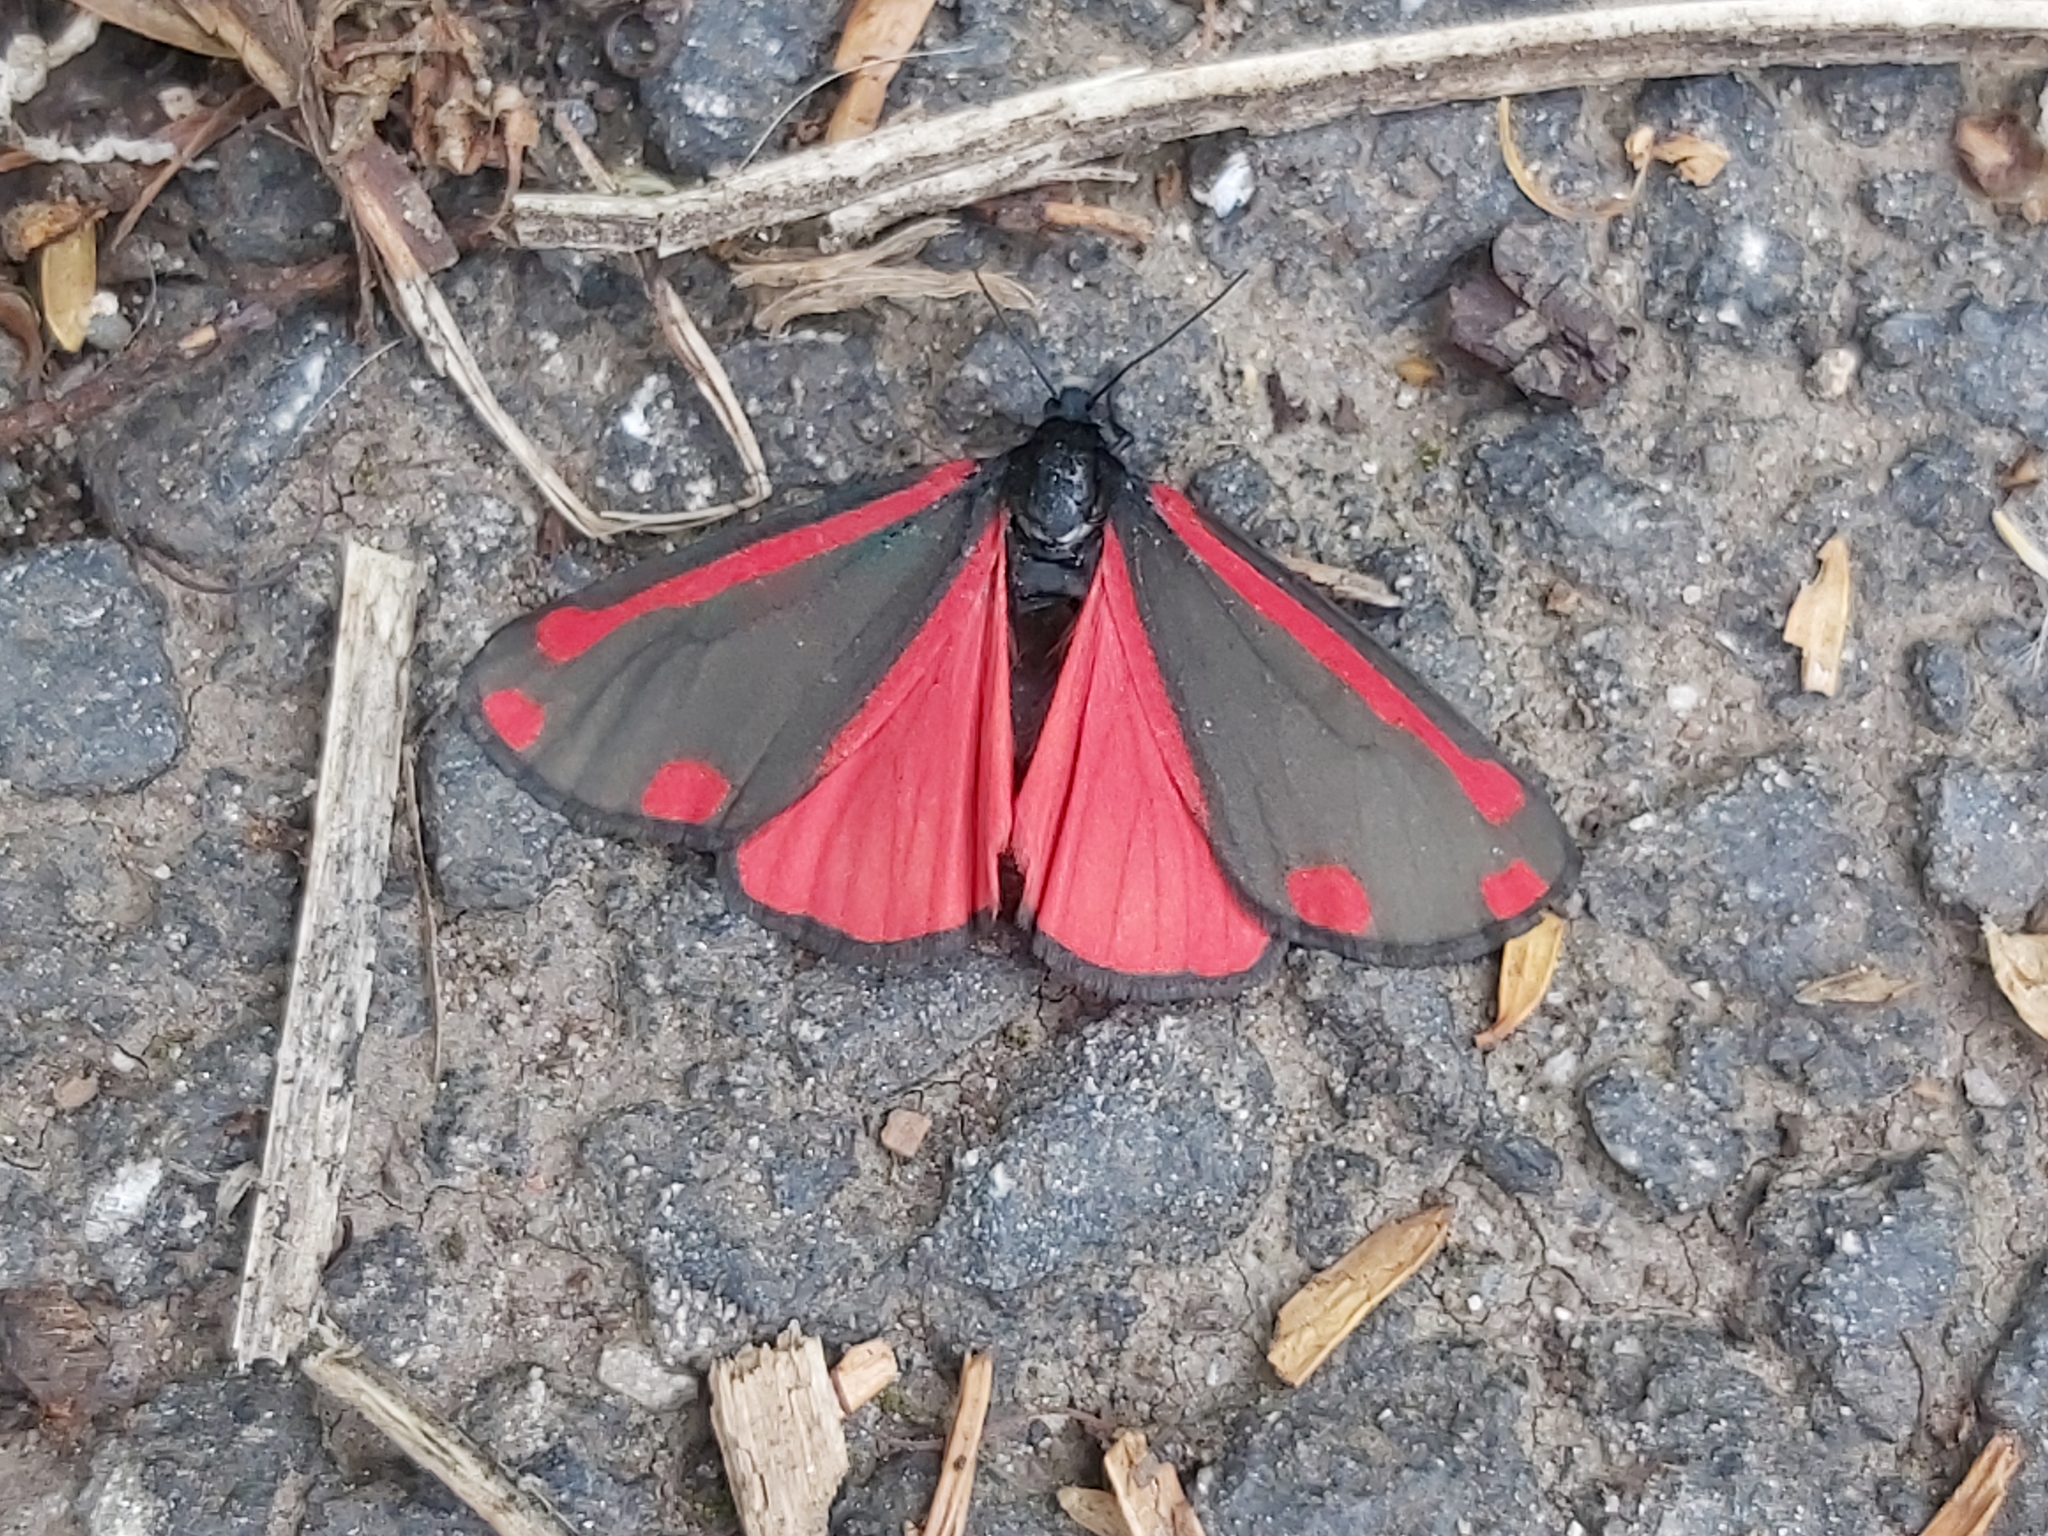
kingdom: Animalia
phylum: Arthropoda
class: Insecta
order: Lepidoptera
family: Erebidae
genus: Tyria
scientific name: Tyria jacobaeae
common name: Cinnabar
